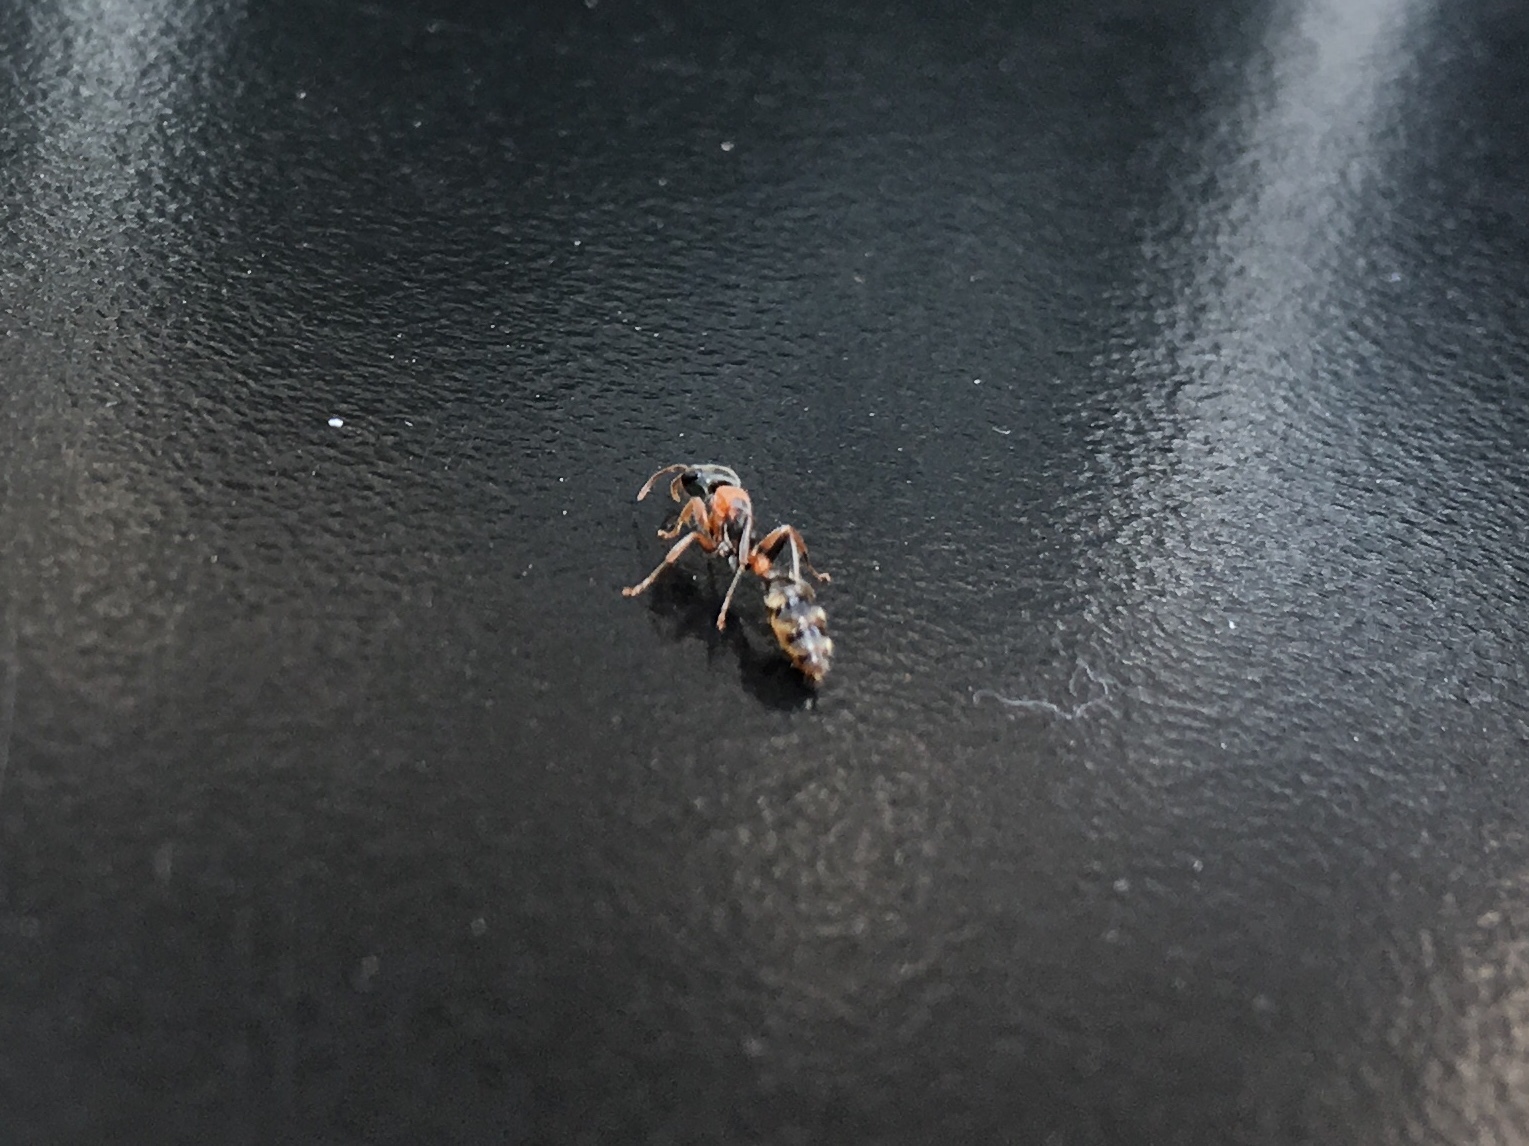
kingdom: Animalia
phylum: Arthropoda
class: Insecta
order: Hymenoptera
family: Formicidae
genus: Pseudomyrmex
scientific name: Pseudomyrmex gracilis
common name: Graceful twig ant
